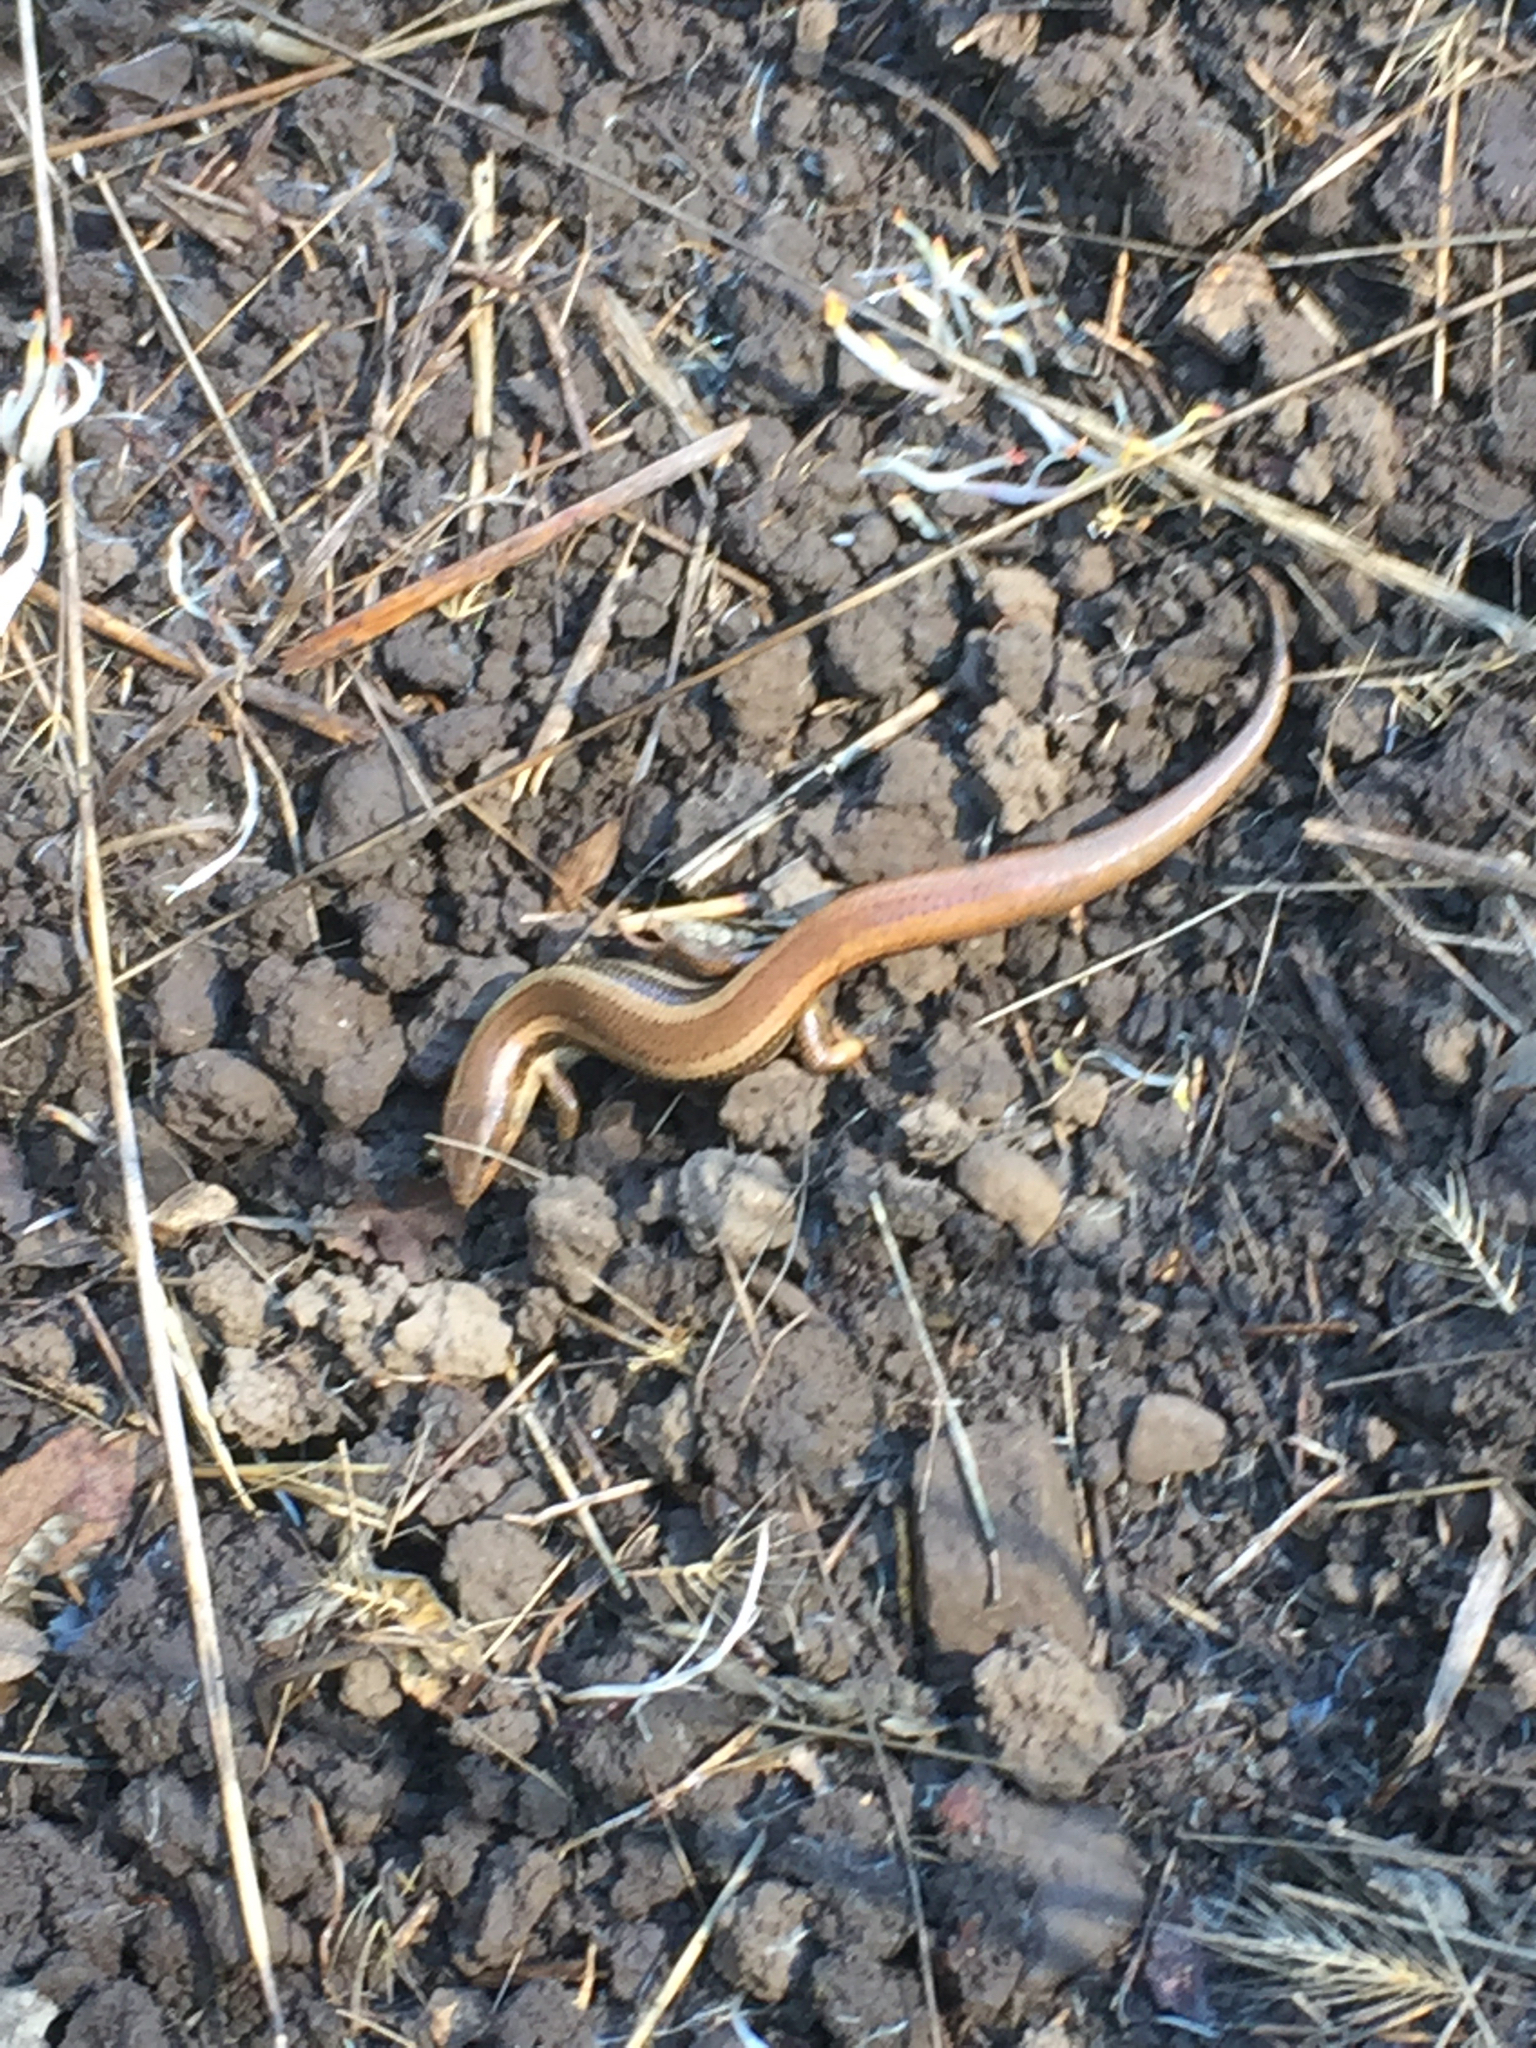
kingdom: Animalia
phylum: Chordata
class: Squamata
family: Scincidae
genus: Plestiodon
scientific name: Plestiodon skiltonianus
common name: Coronado island skink [interparietalis]
